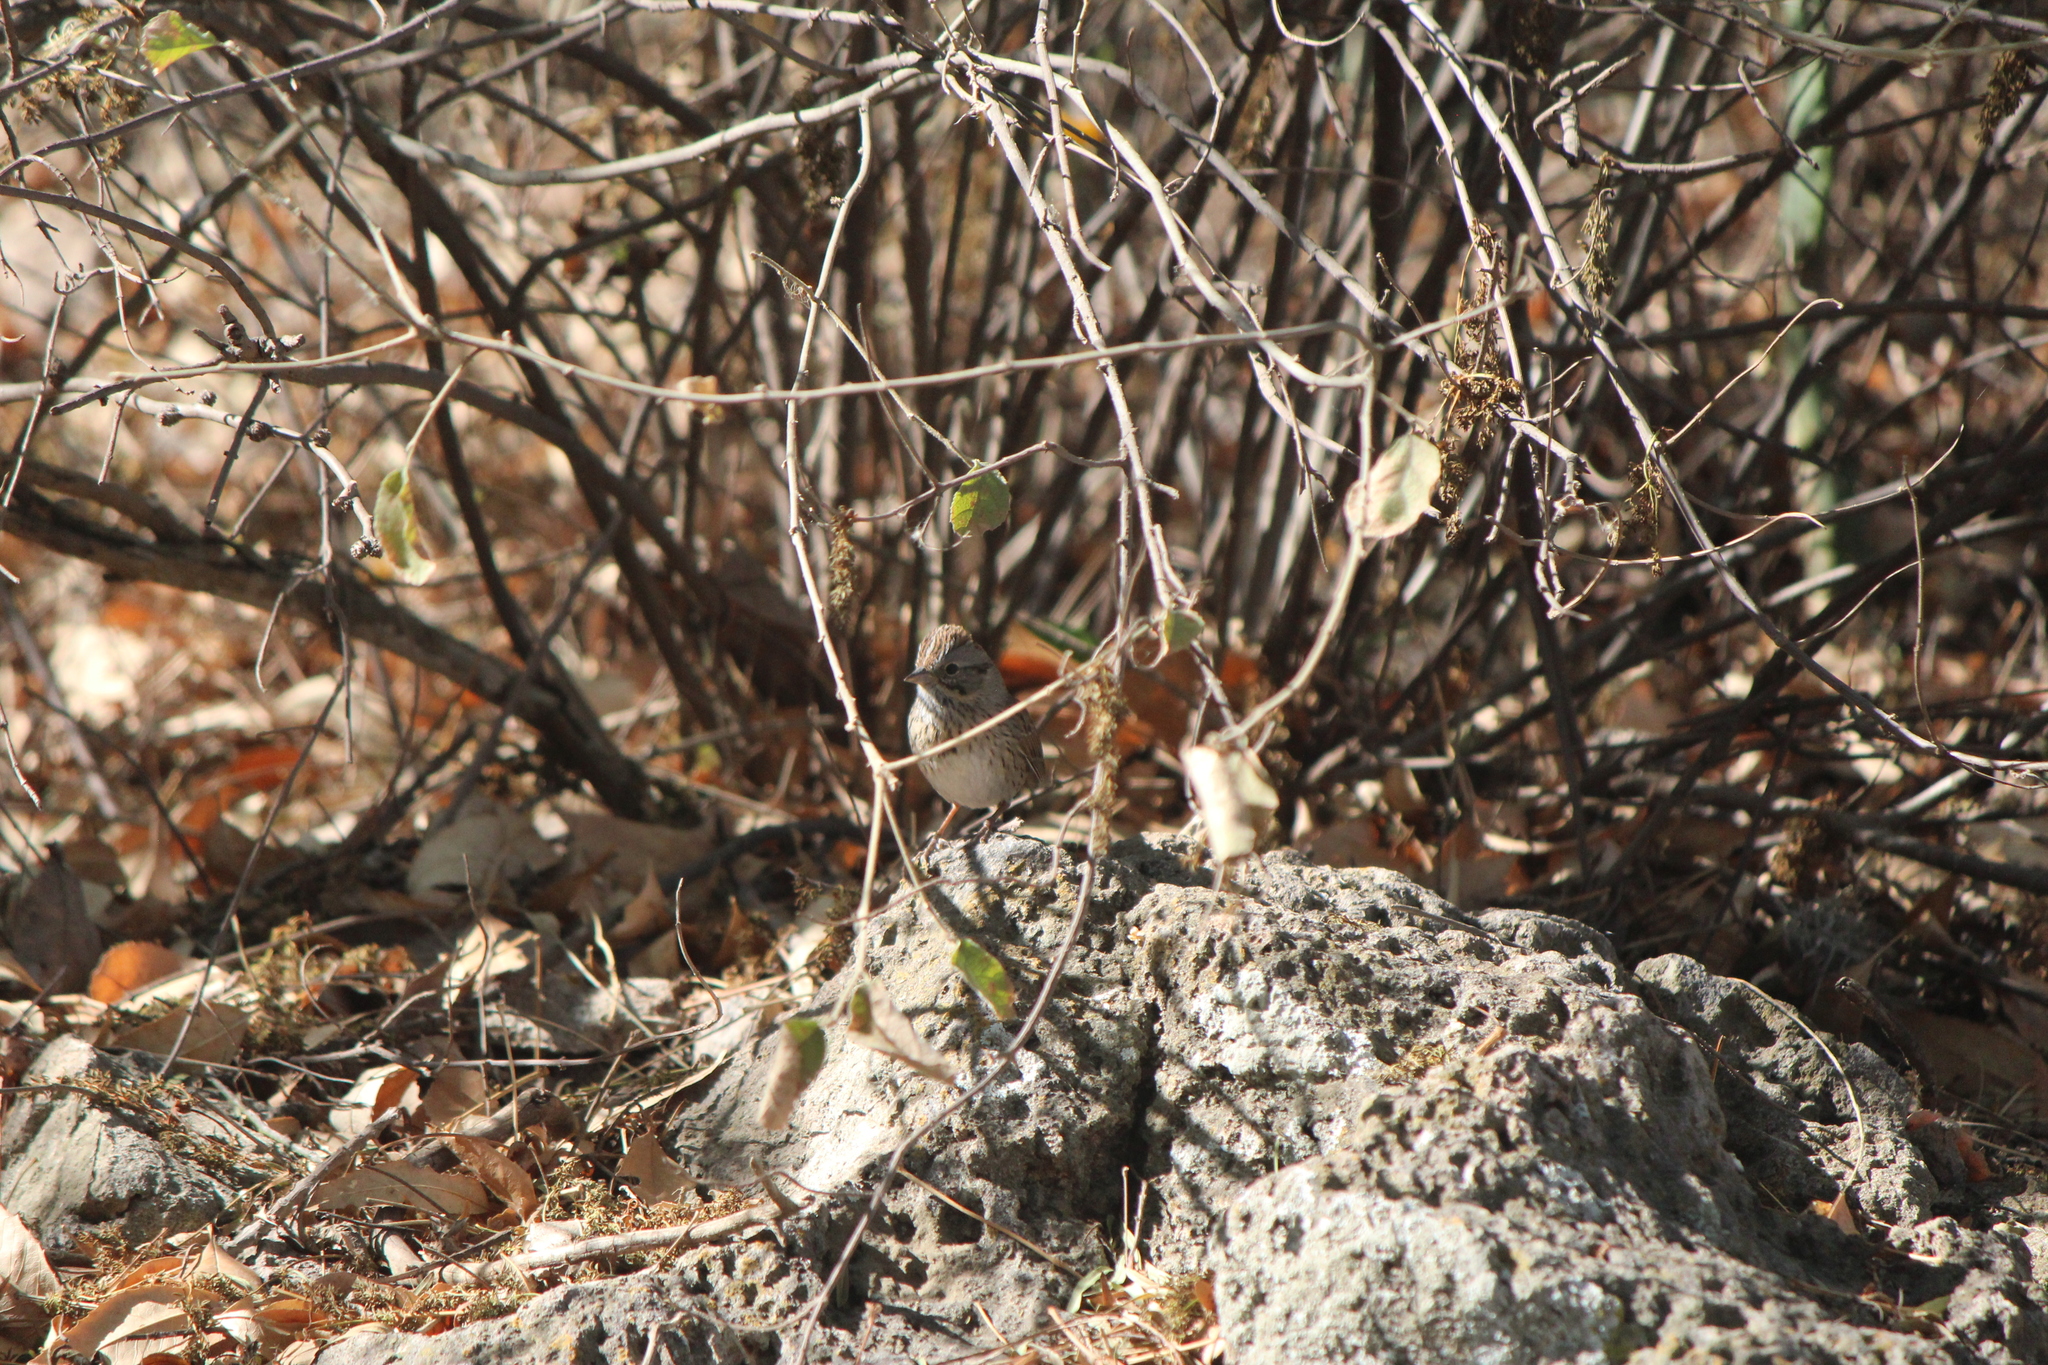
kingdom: Animalia
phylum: Chordata
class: Aves
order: Passeriformes
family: Passerellidae
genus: Melospiza
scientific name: Melospiza lincolnii
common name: Lincoln's sparrow
